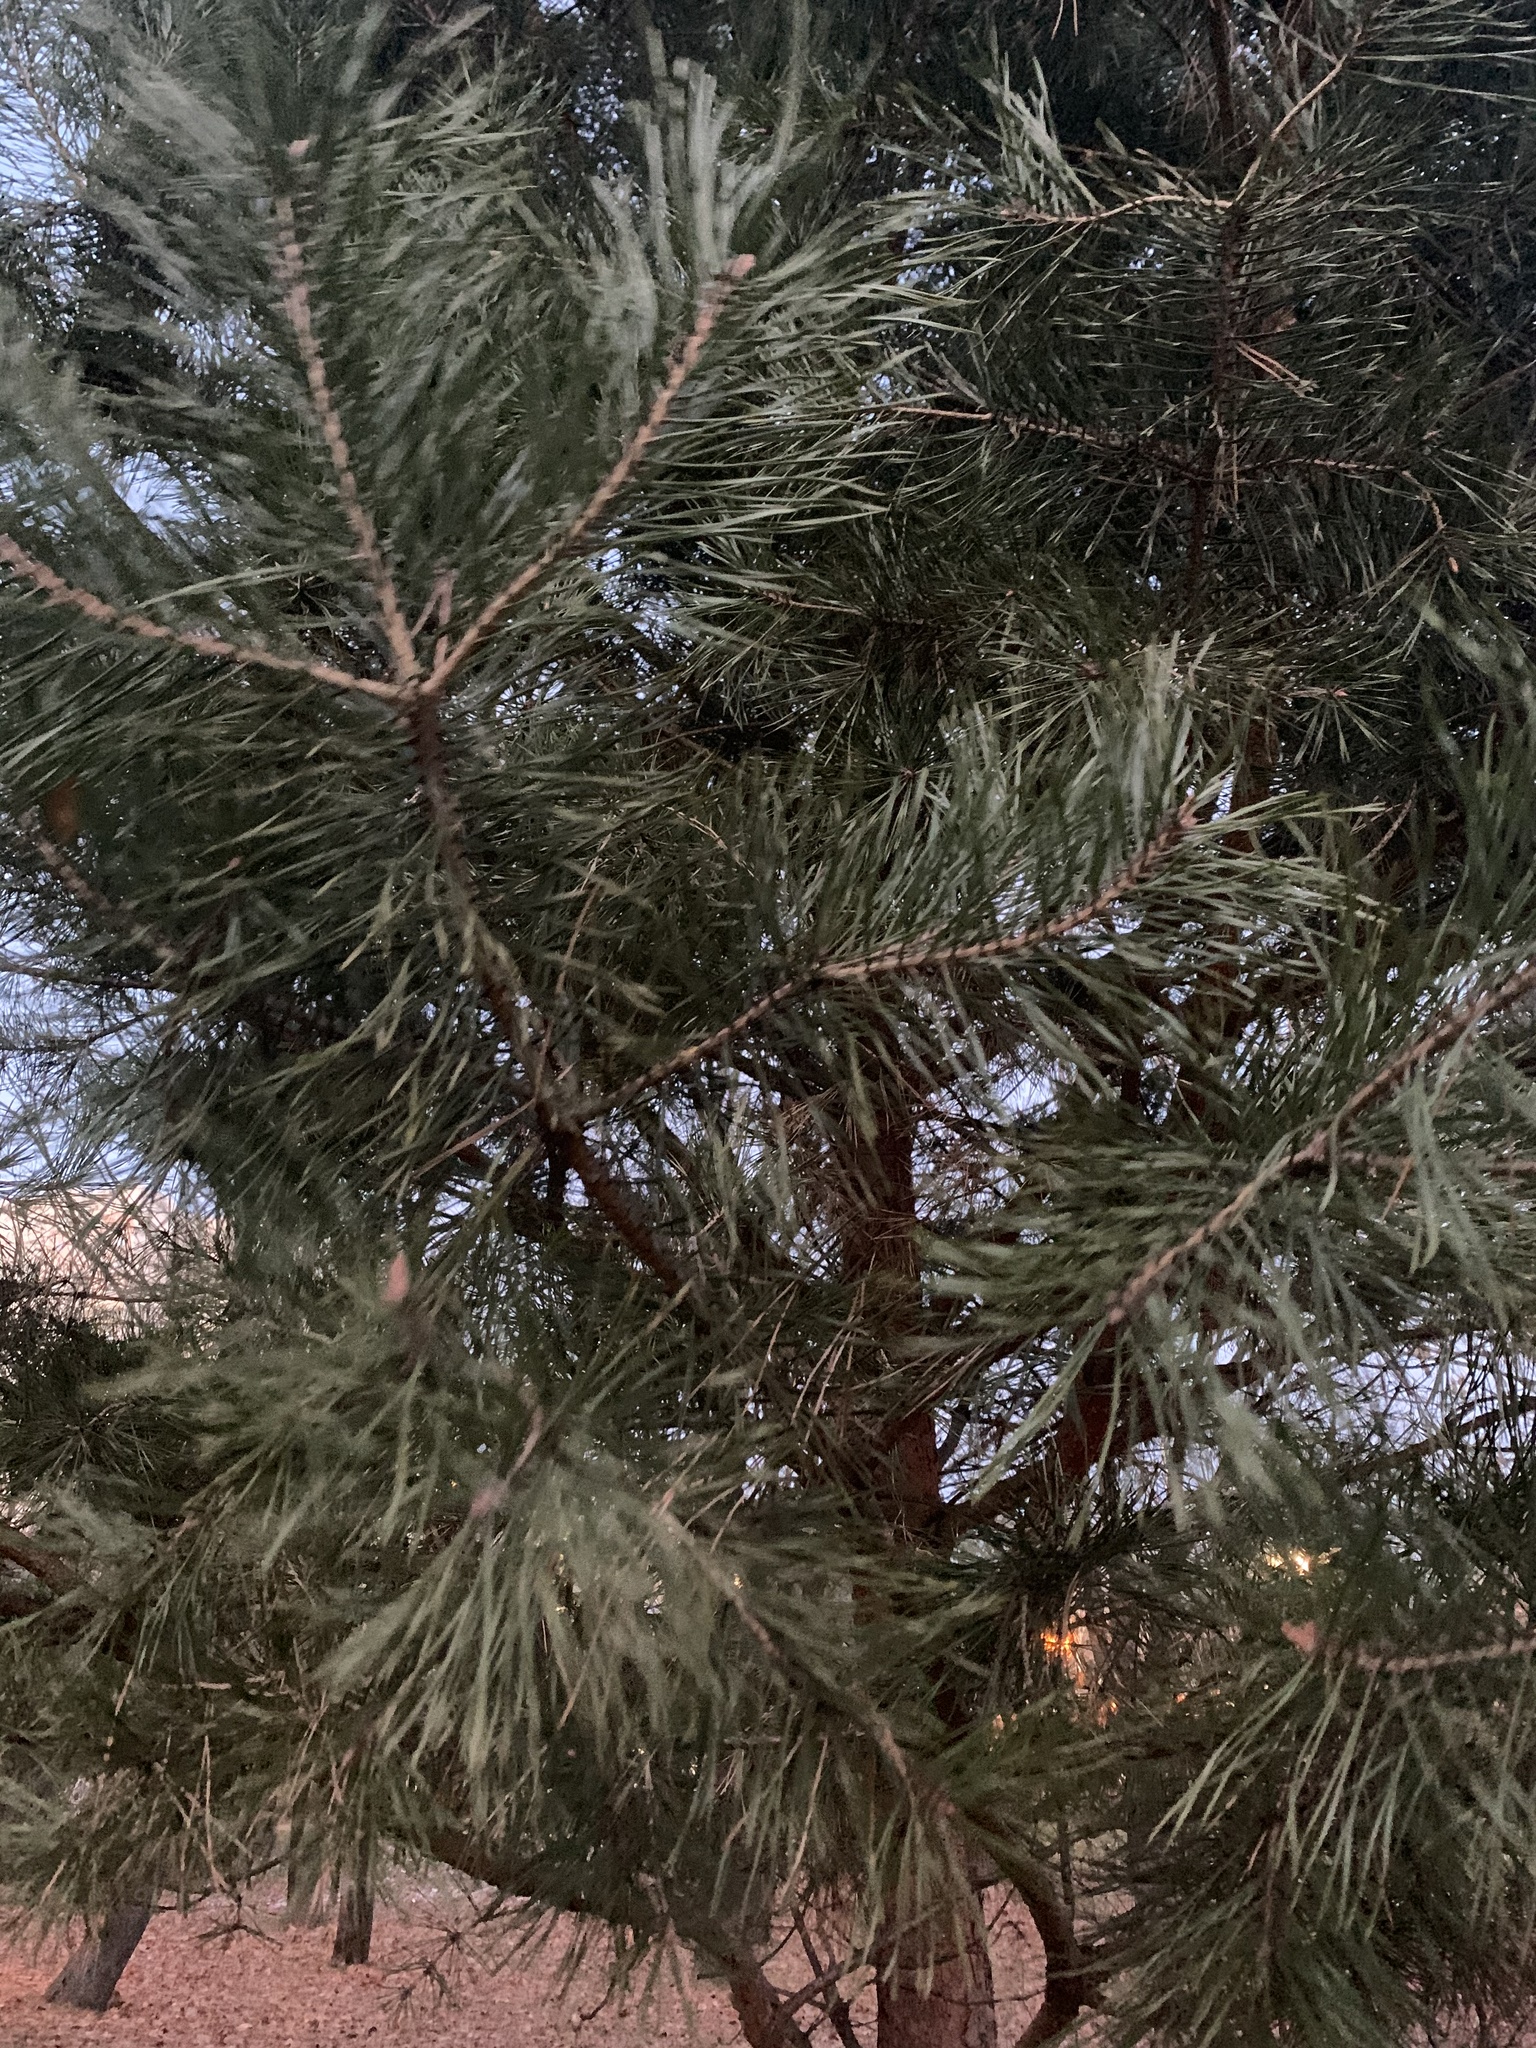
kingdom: Plantae
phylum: Tracheophyta
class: Pinopsida
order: Pinales
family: Pinaceae
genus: Pinus
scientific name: Pinus sylvestris
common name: Scots pine
